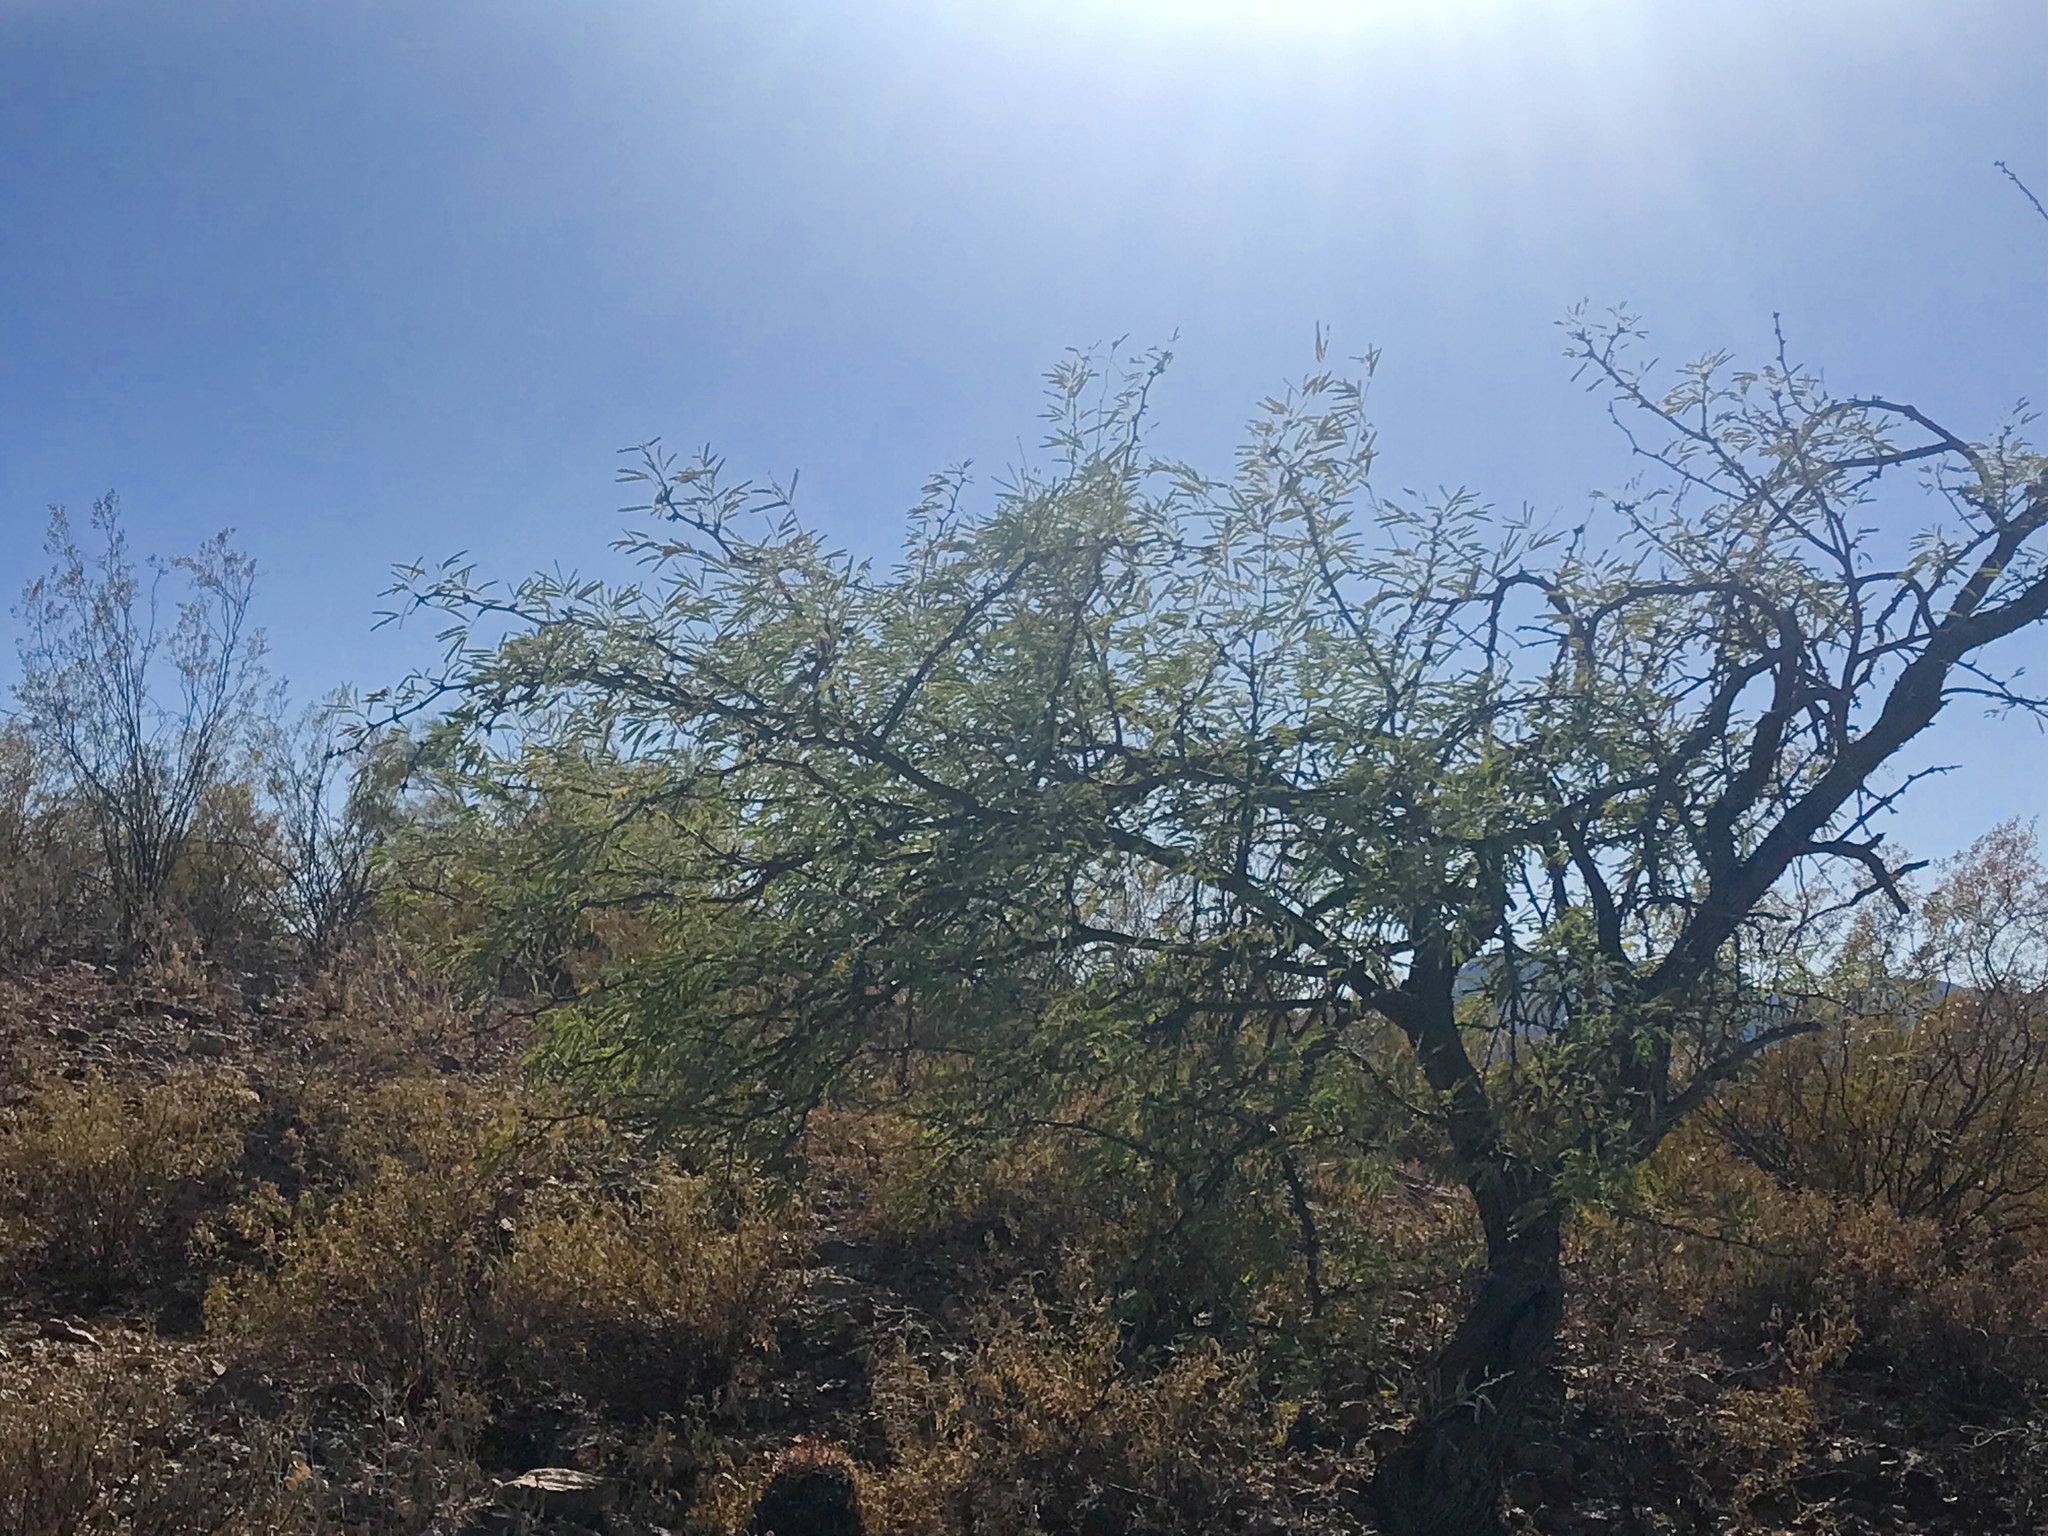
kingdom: Plantae
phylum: Tracheophyta
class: Magnoliopsida
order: Fabales
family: Fabaceae
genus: Prosopis
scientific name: Prosopis velutina
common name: Velvet mesquite
